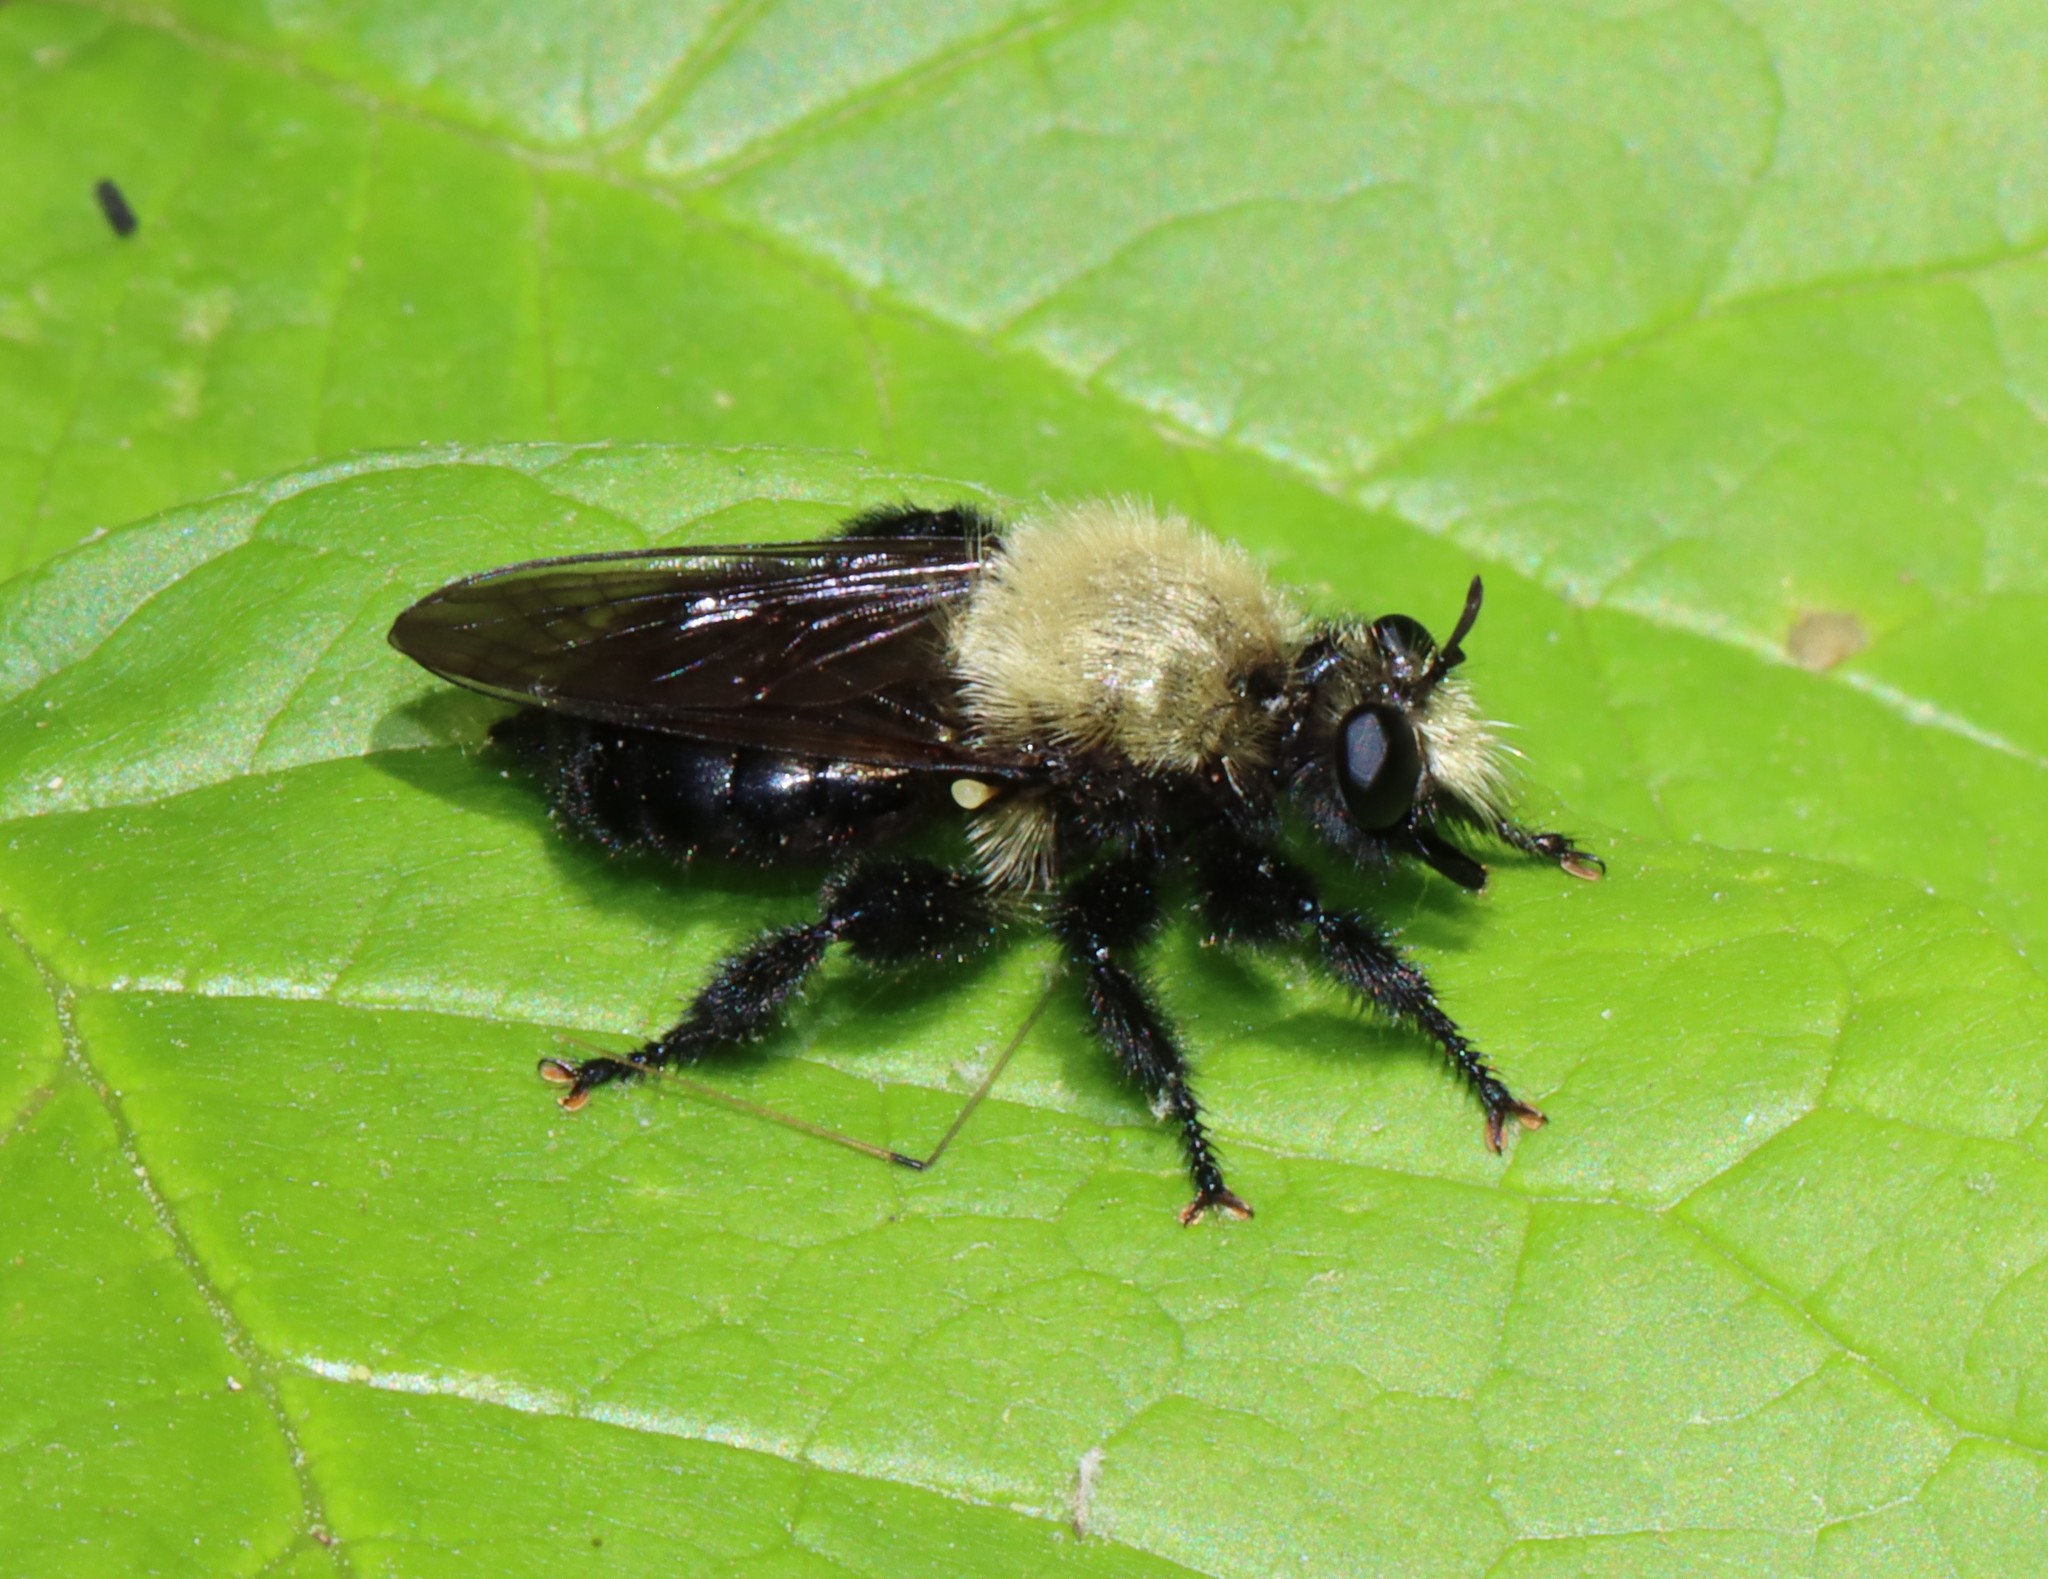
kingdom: Animalia
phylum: Arthropoda
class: Insecta
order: Diptera
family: Asilidae
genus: Laphria
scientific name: Laphria flavicollis
